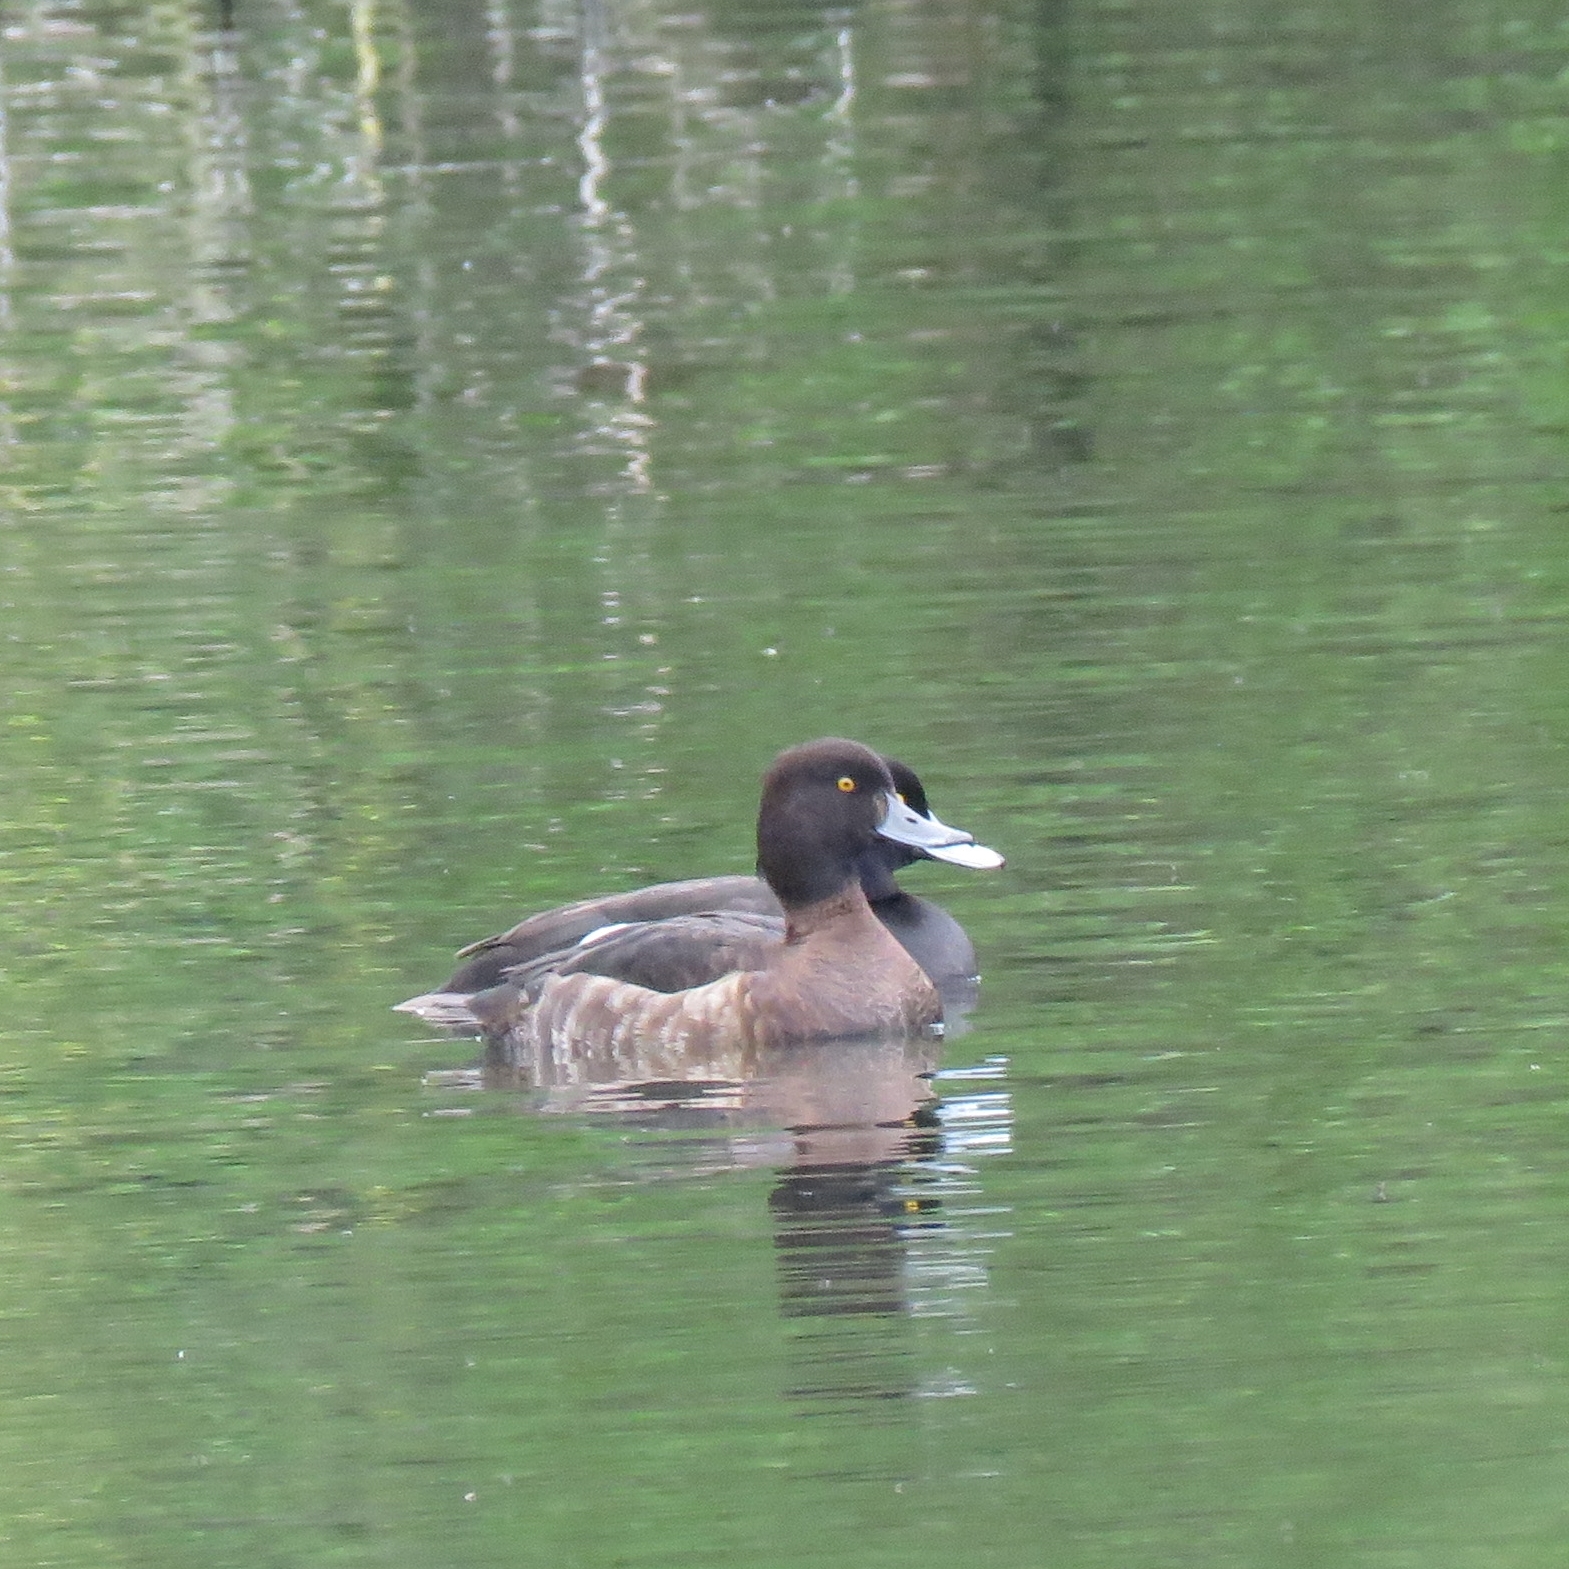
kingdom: Animalia
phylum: Chordata
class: Aves
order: Anseriformes
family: Anatidae
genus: Aythya
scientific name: Aythya fuligula
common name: Tufted duck
